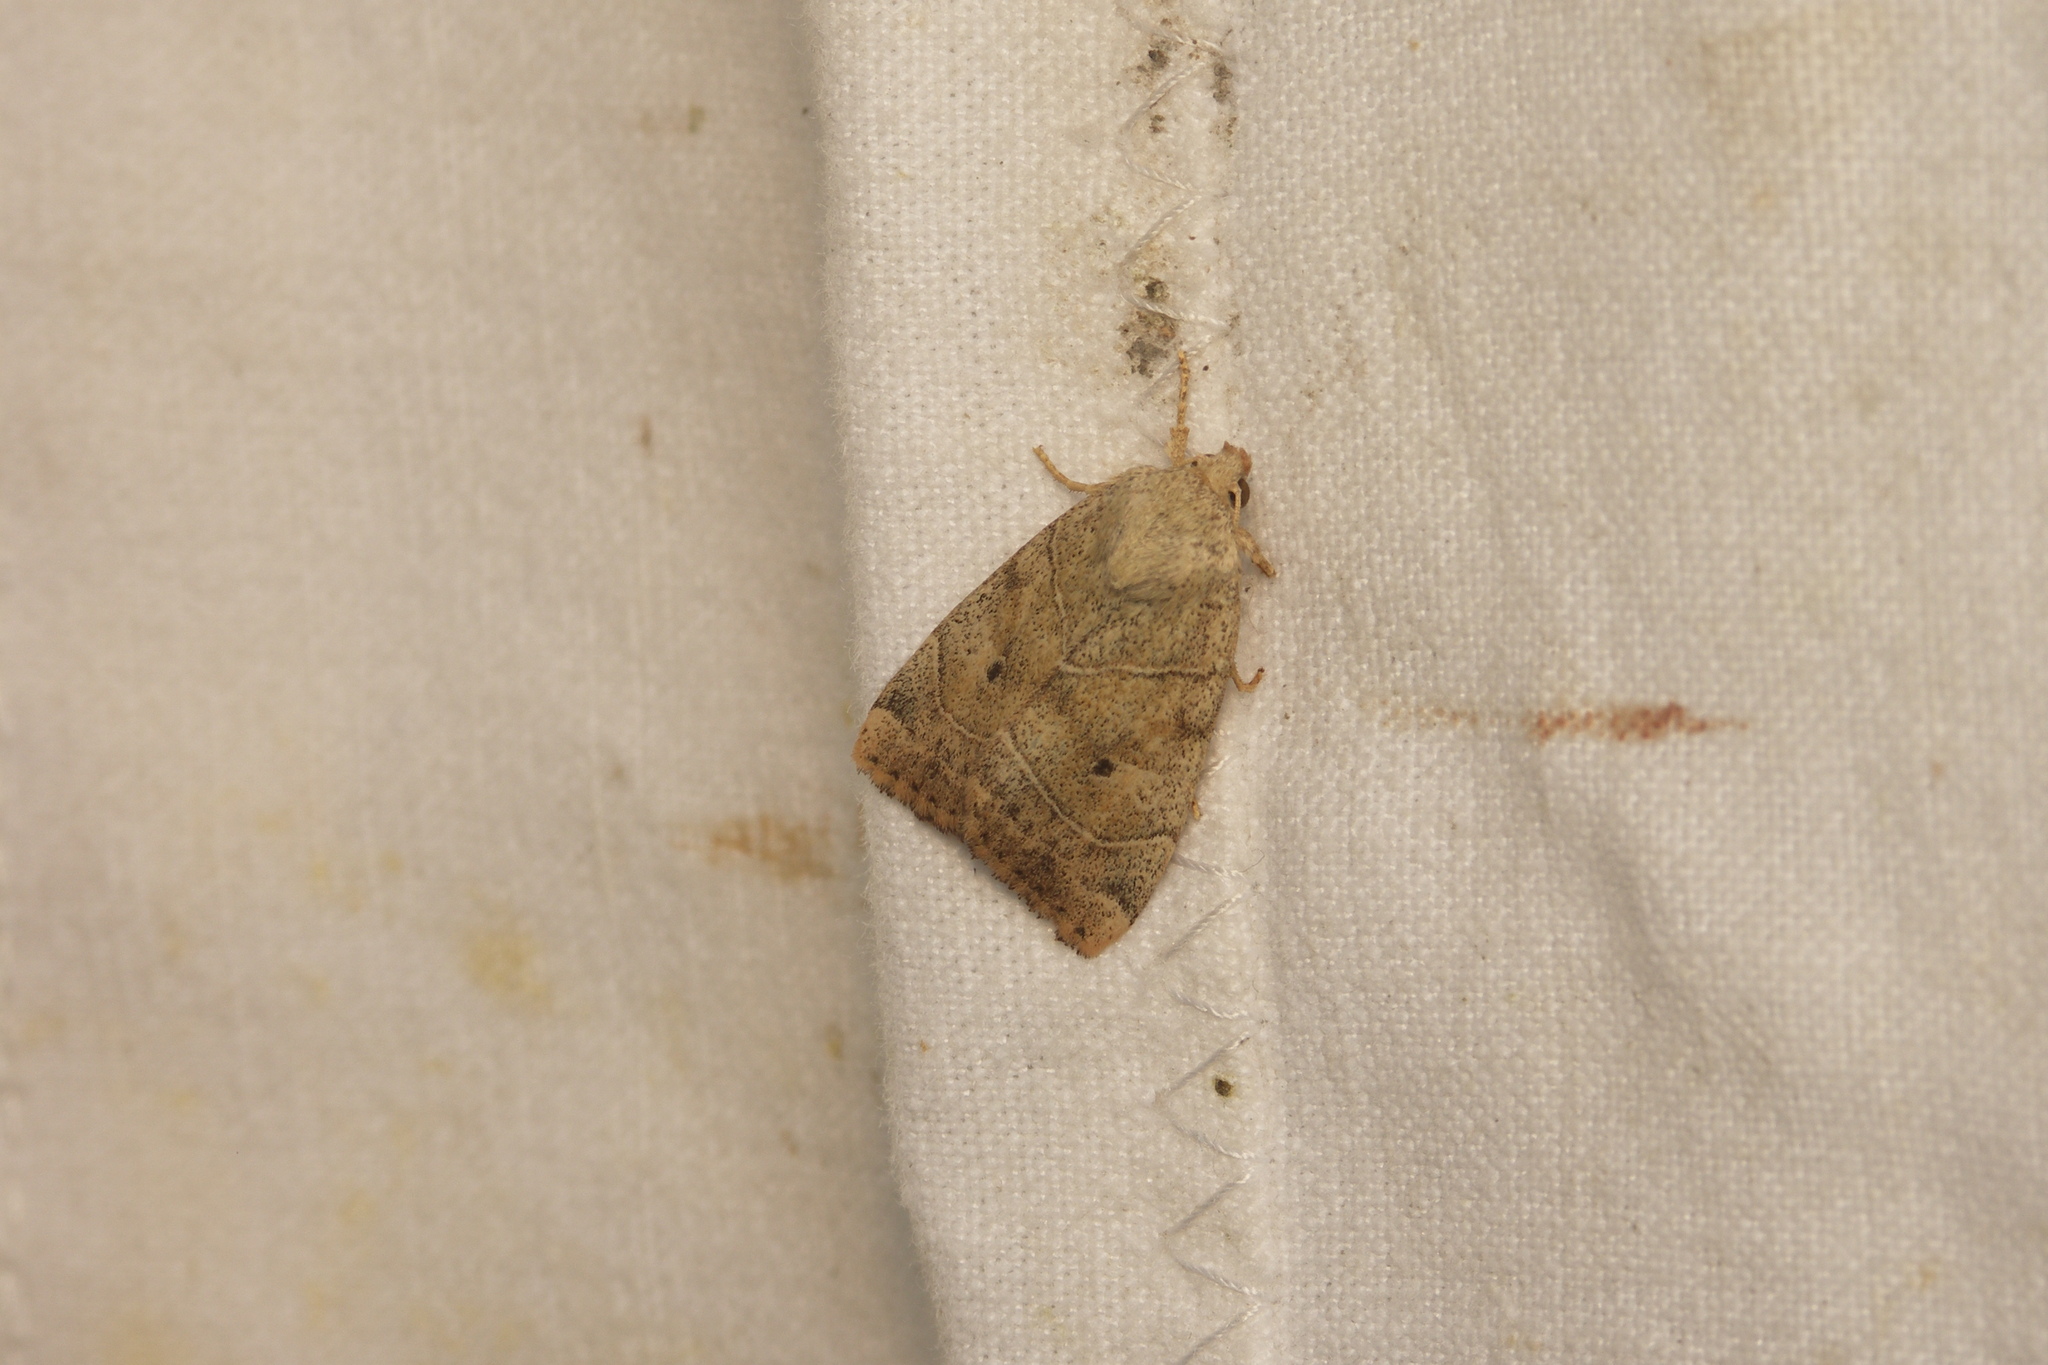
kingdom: Animalia
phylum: Arthropoda
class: Insecta
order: Lepidoptera
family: Noctuidae
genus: Cosmia
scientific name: Cosmia trapezina
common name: Dun-bar
